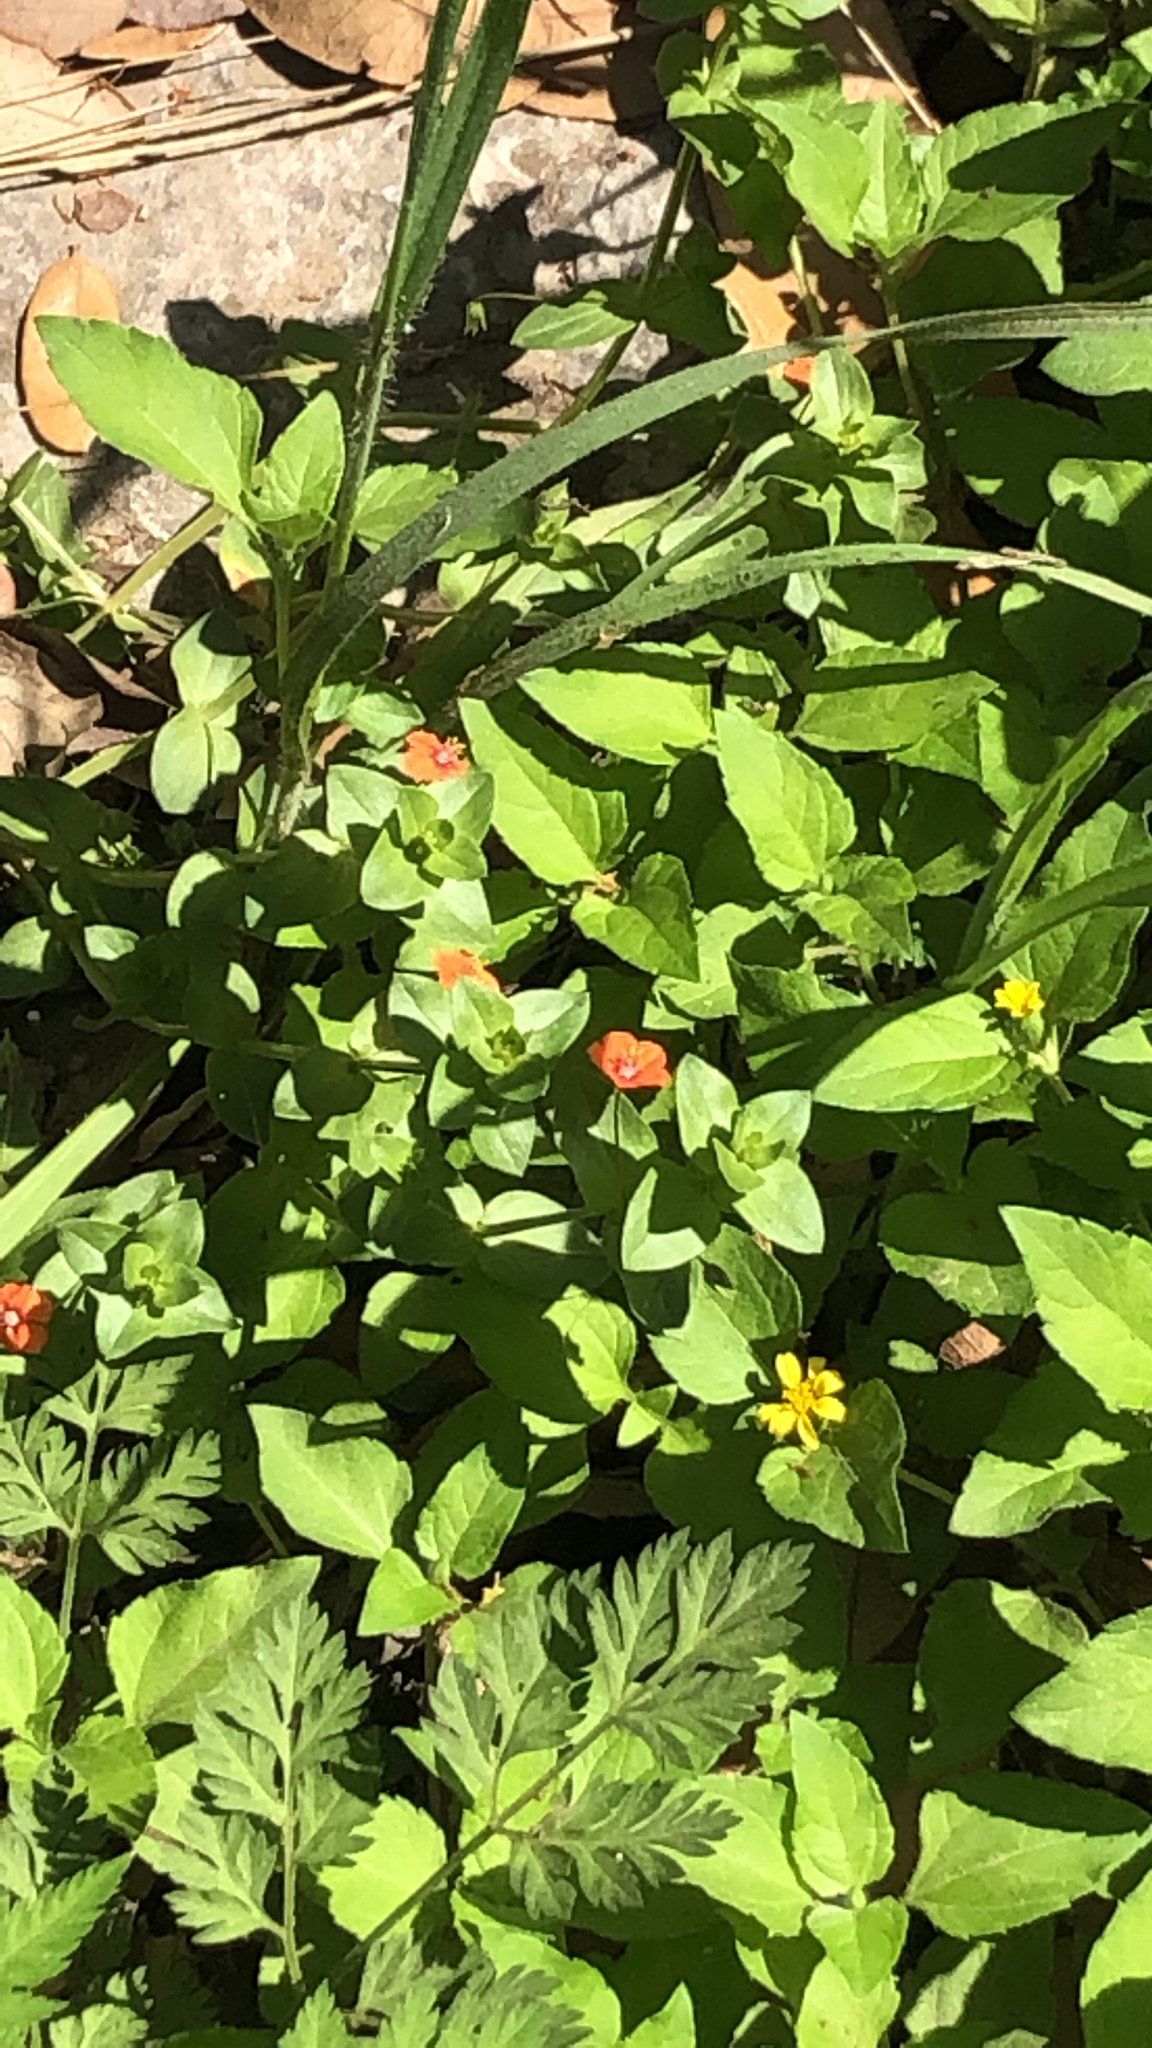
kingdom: Plantae
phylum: Tracheophyta
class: Magnoliopsida
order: Ericales
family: Primulaceae
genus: Lysimachia
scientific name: Lysimachia arvensis
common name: Scarlet pimpernel
